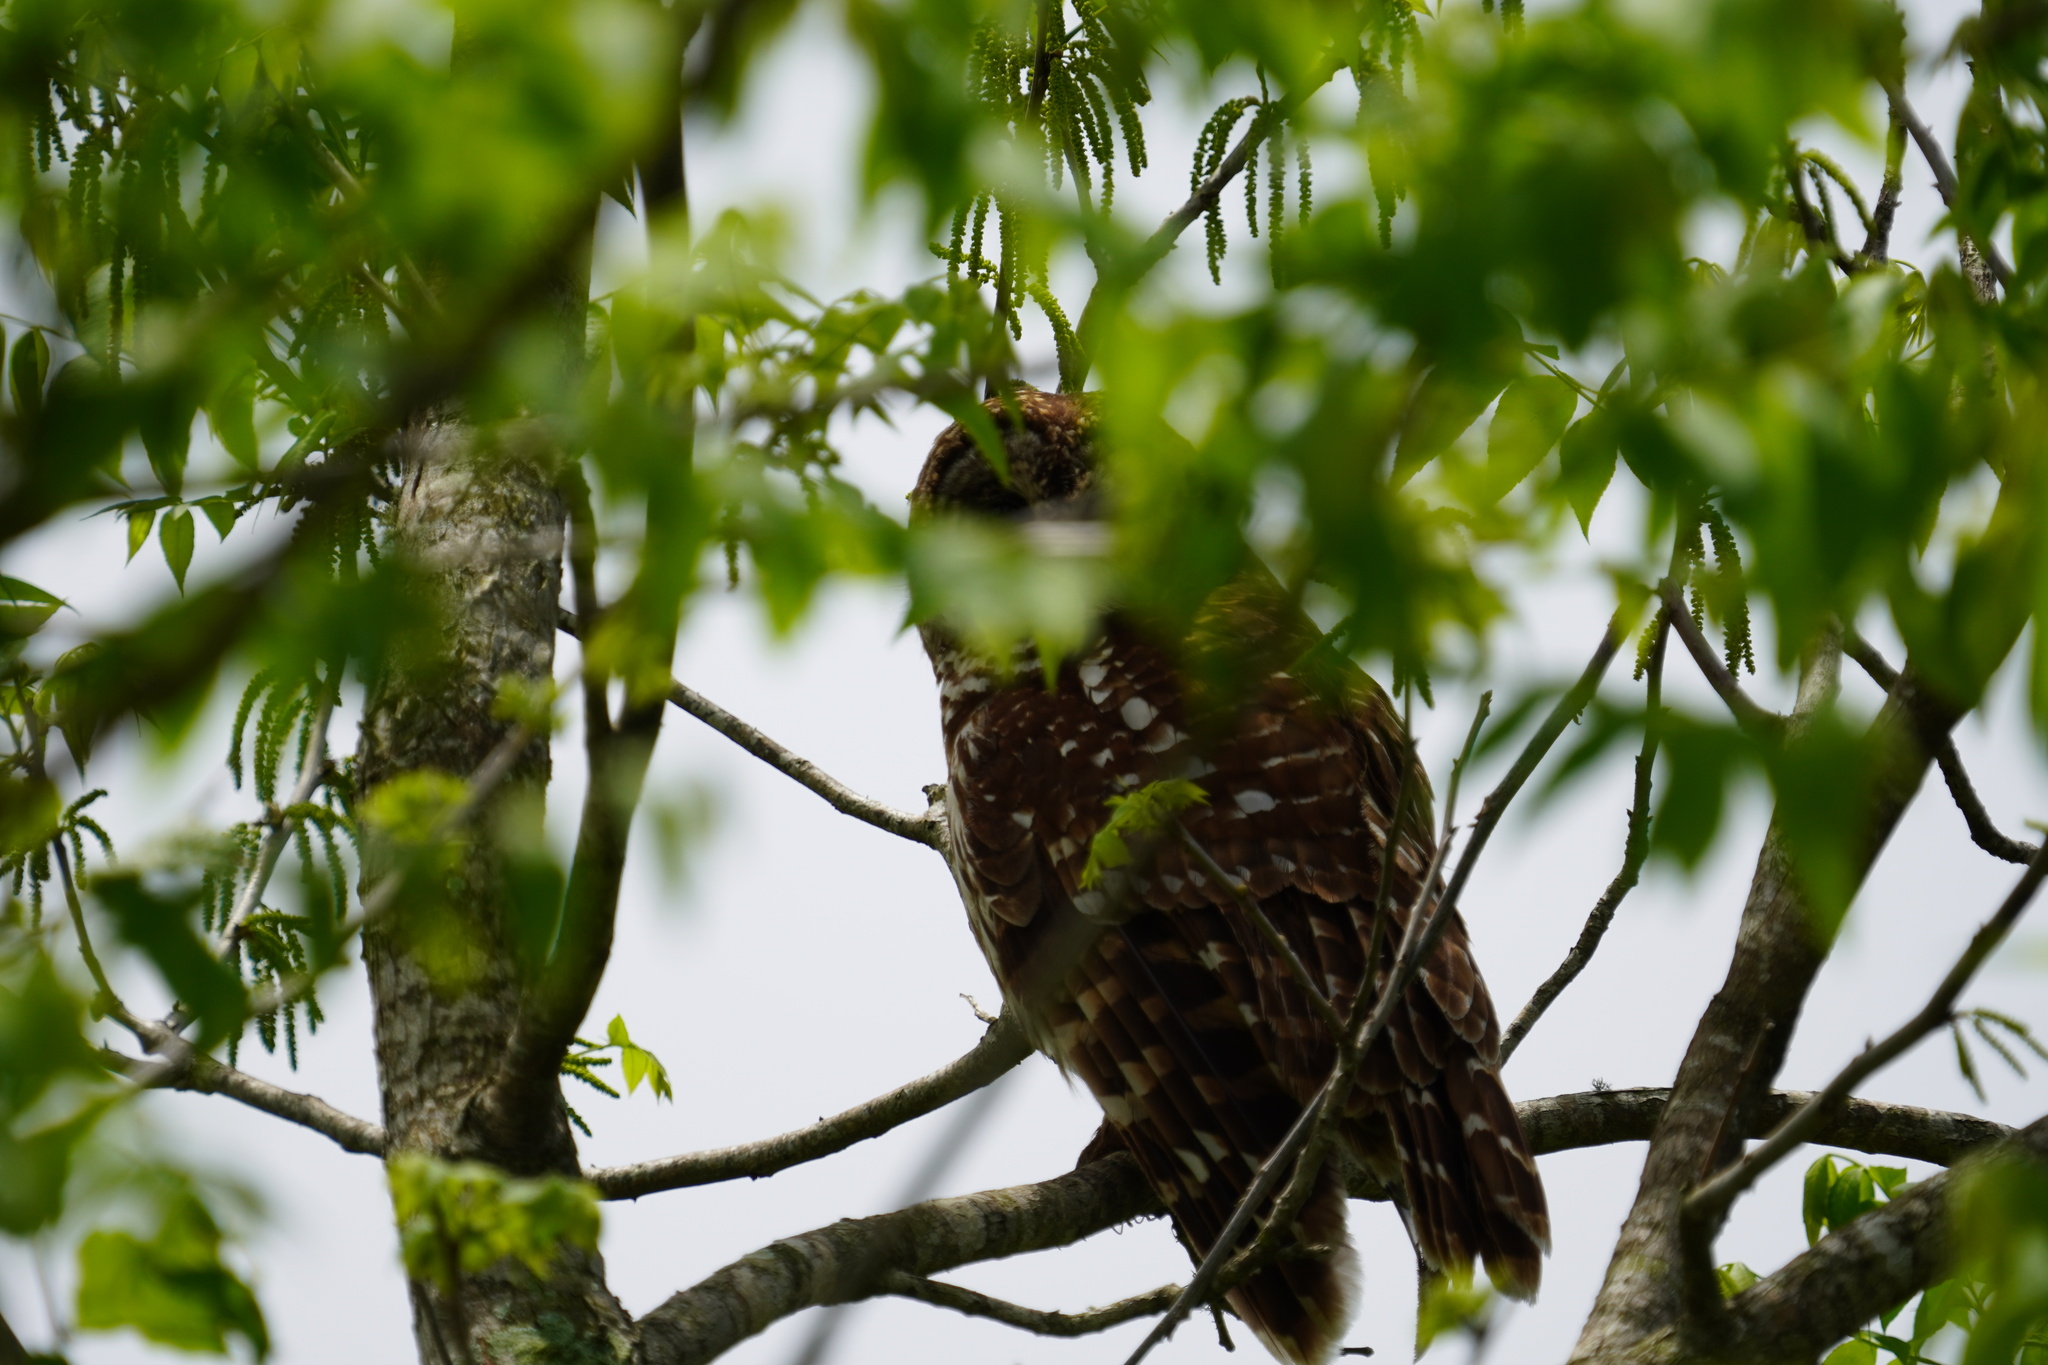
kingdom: Animalia
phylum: Chordata
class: Aves
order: Strigiformes
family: Strigidae
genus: Strix
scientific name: Strix varia
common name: Barred owl
